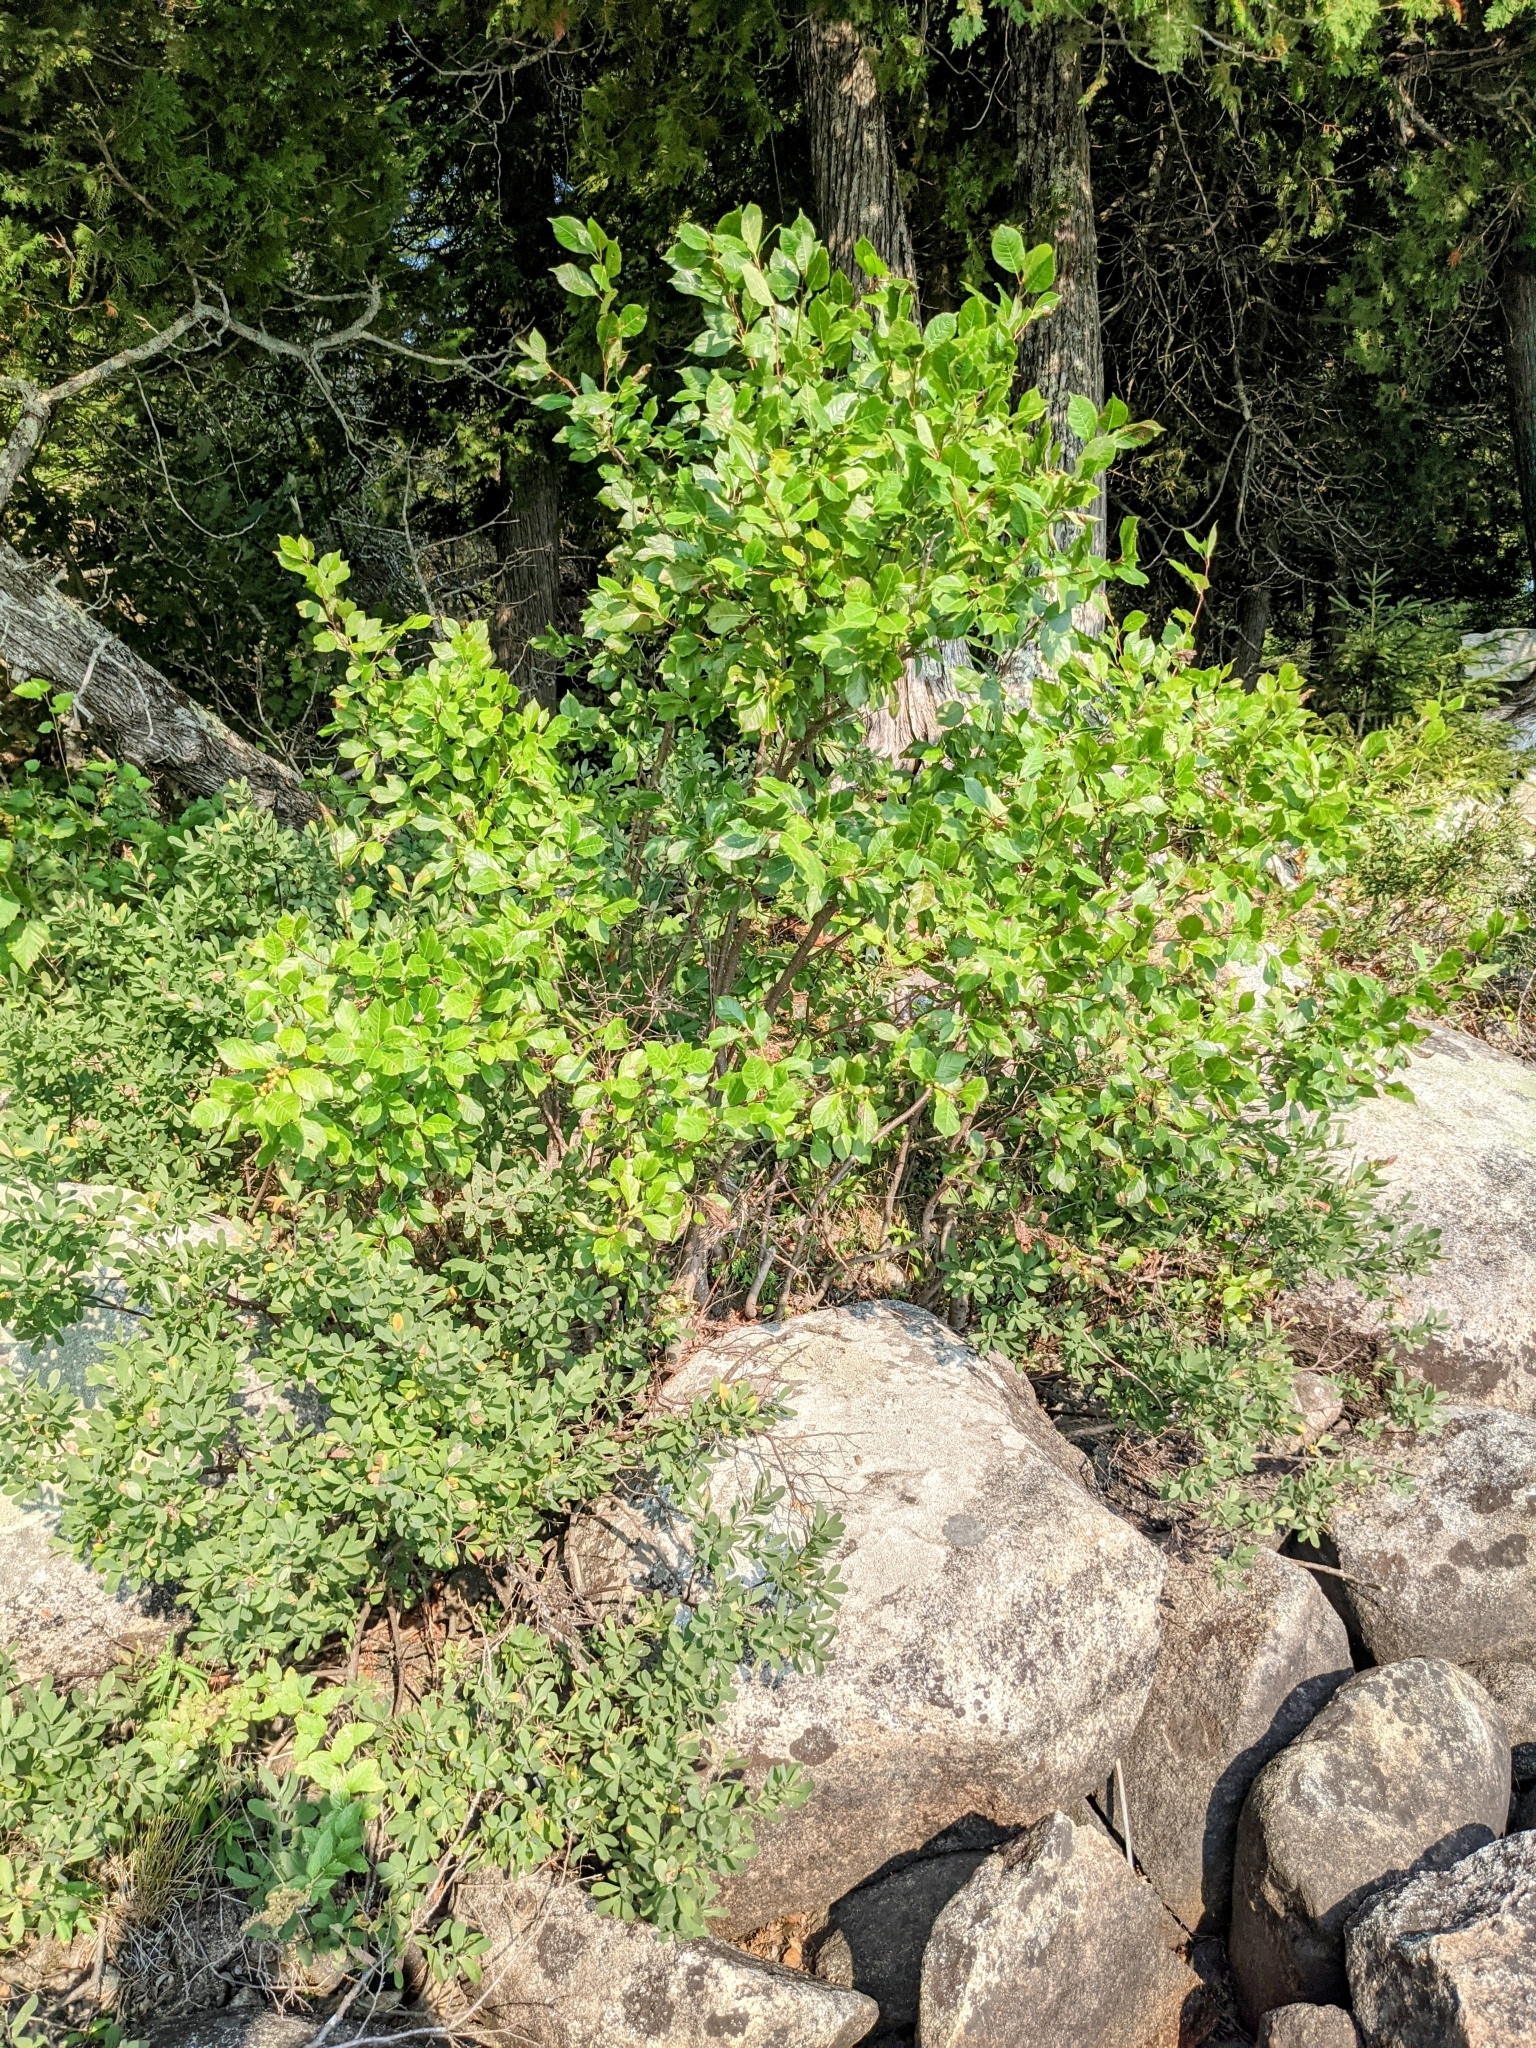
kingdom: Plantae
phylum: Tracheophyta
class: Magnoliopsida
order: Aquifoliales
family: Aquifoliaceae
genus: Ilex
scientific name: Ilex verticillata
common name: Virginia winterberry
